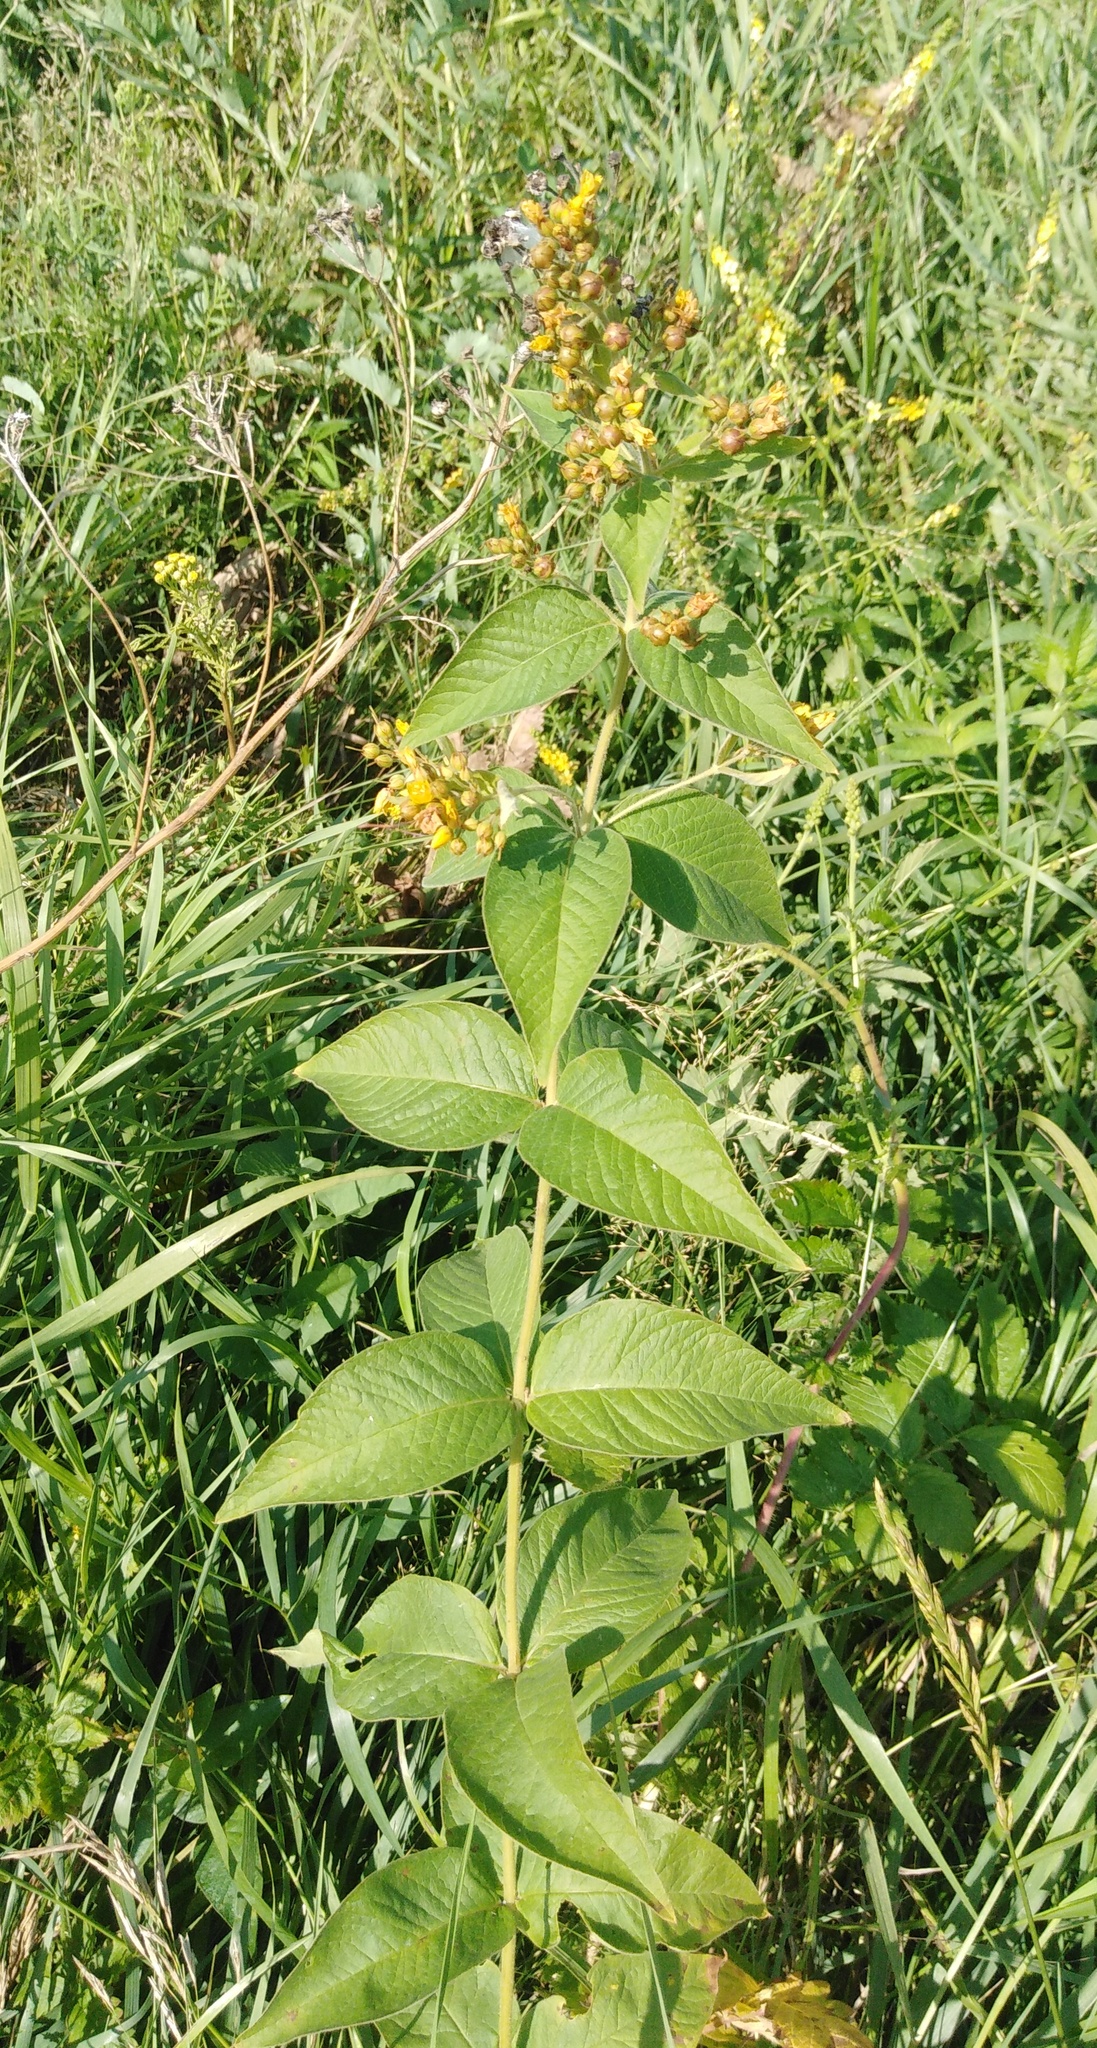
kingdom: Plantae
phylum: Tracheophyta
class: Magnoliopsida
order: Ericales
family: Primulaceae
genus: Lysimachia
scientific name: Lysimachia vulgaris
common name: Yellow loosestrife
